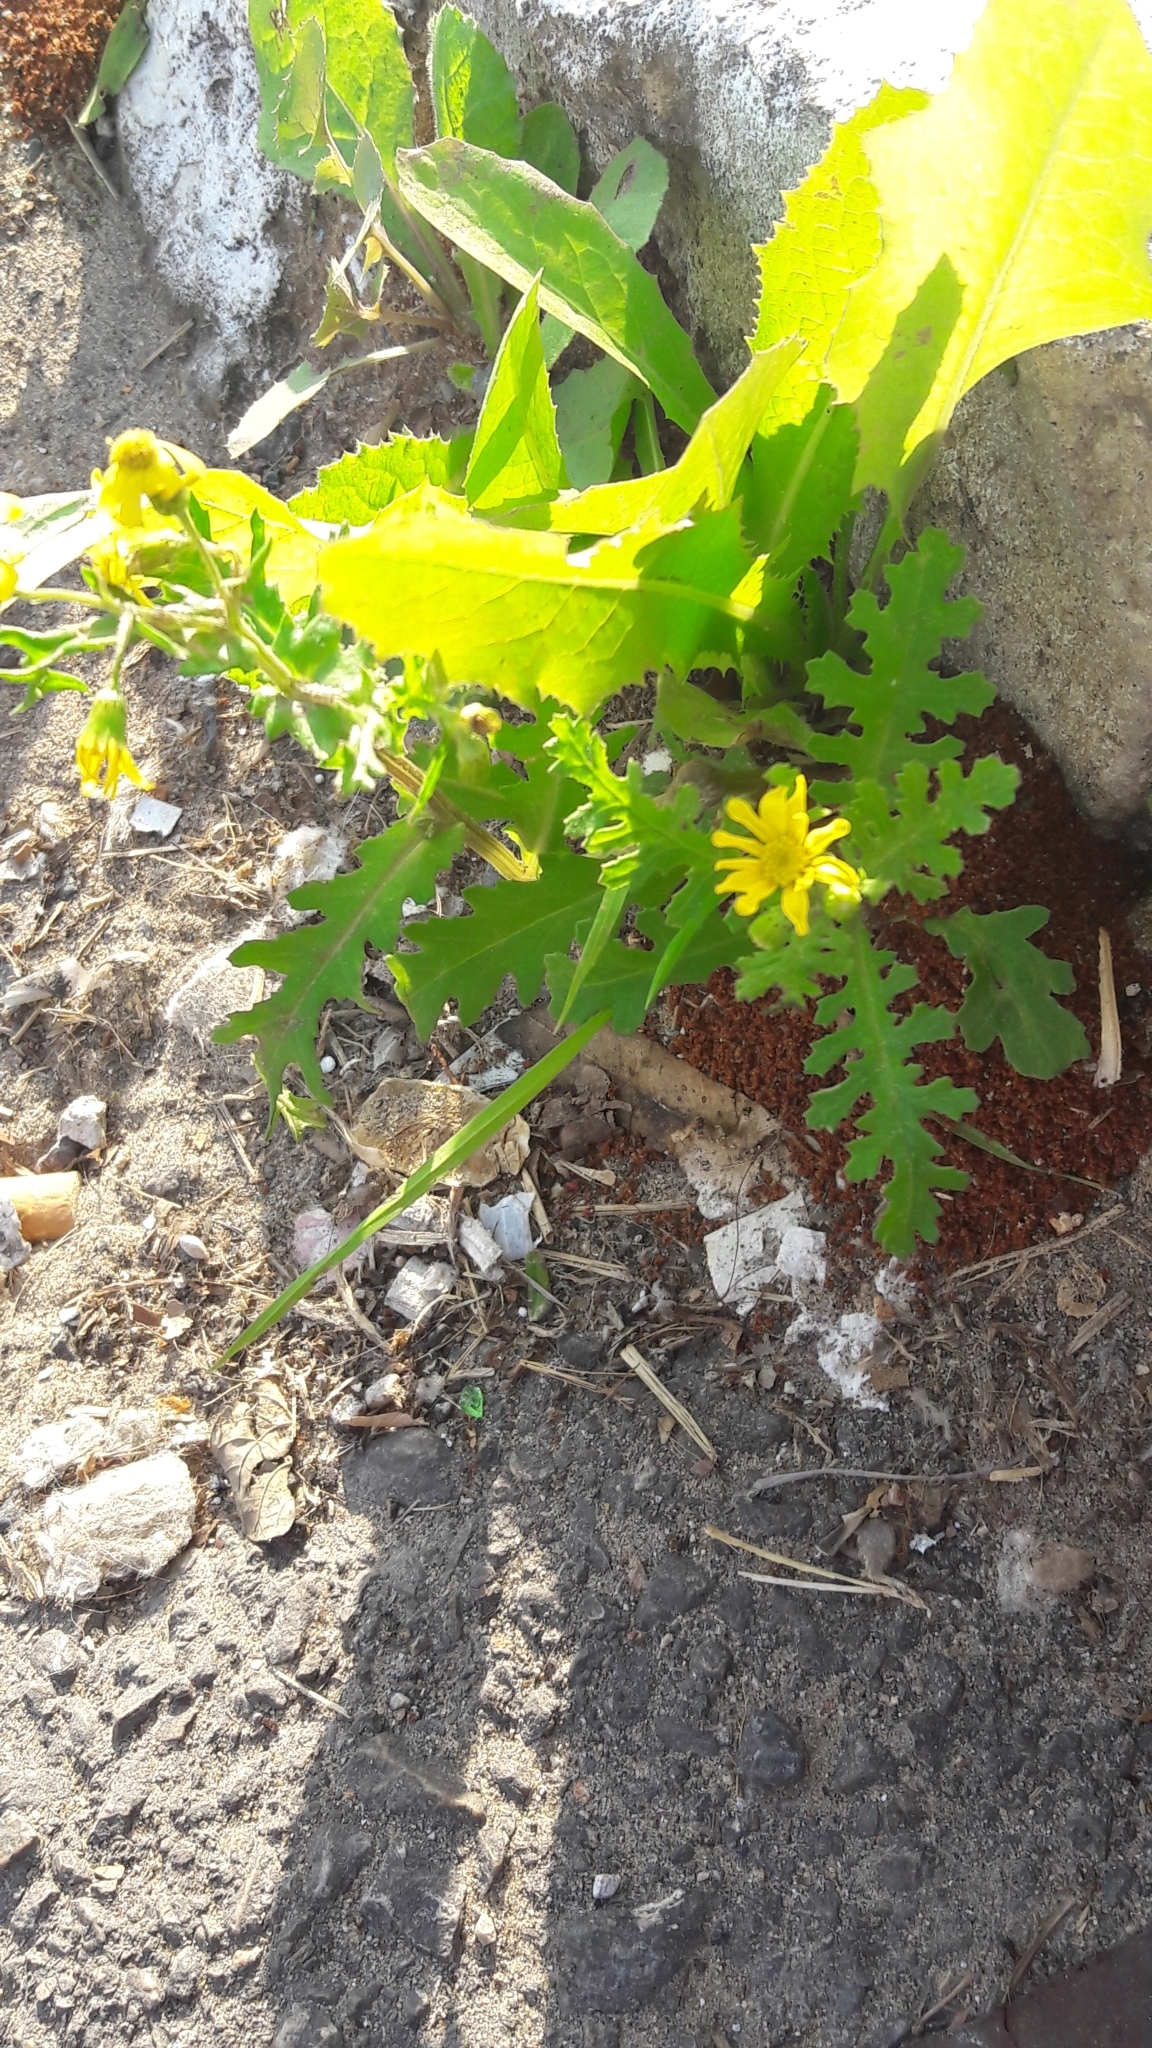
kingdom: Plantae
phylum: Tracheophyta
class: Magnoliopsida
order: Asterales
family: Asteraceae
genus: Senecio
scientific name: Senecio vernalis
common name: Eastern groundsel
